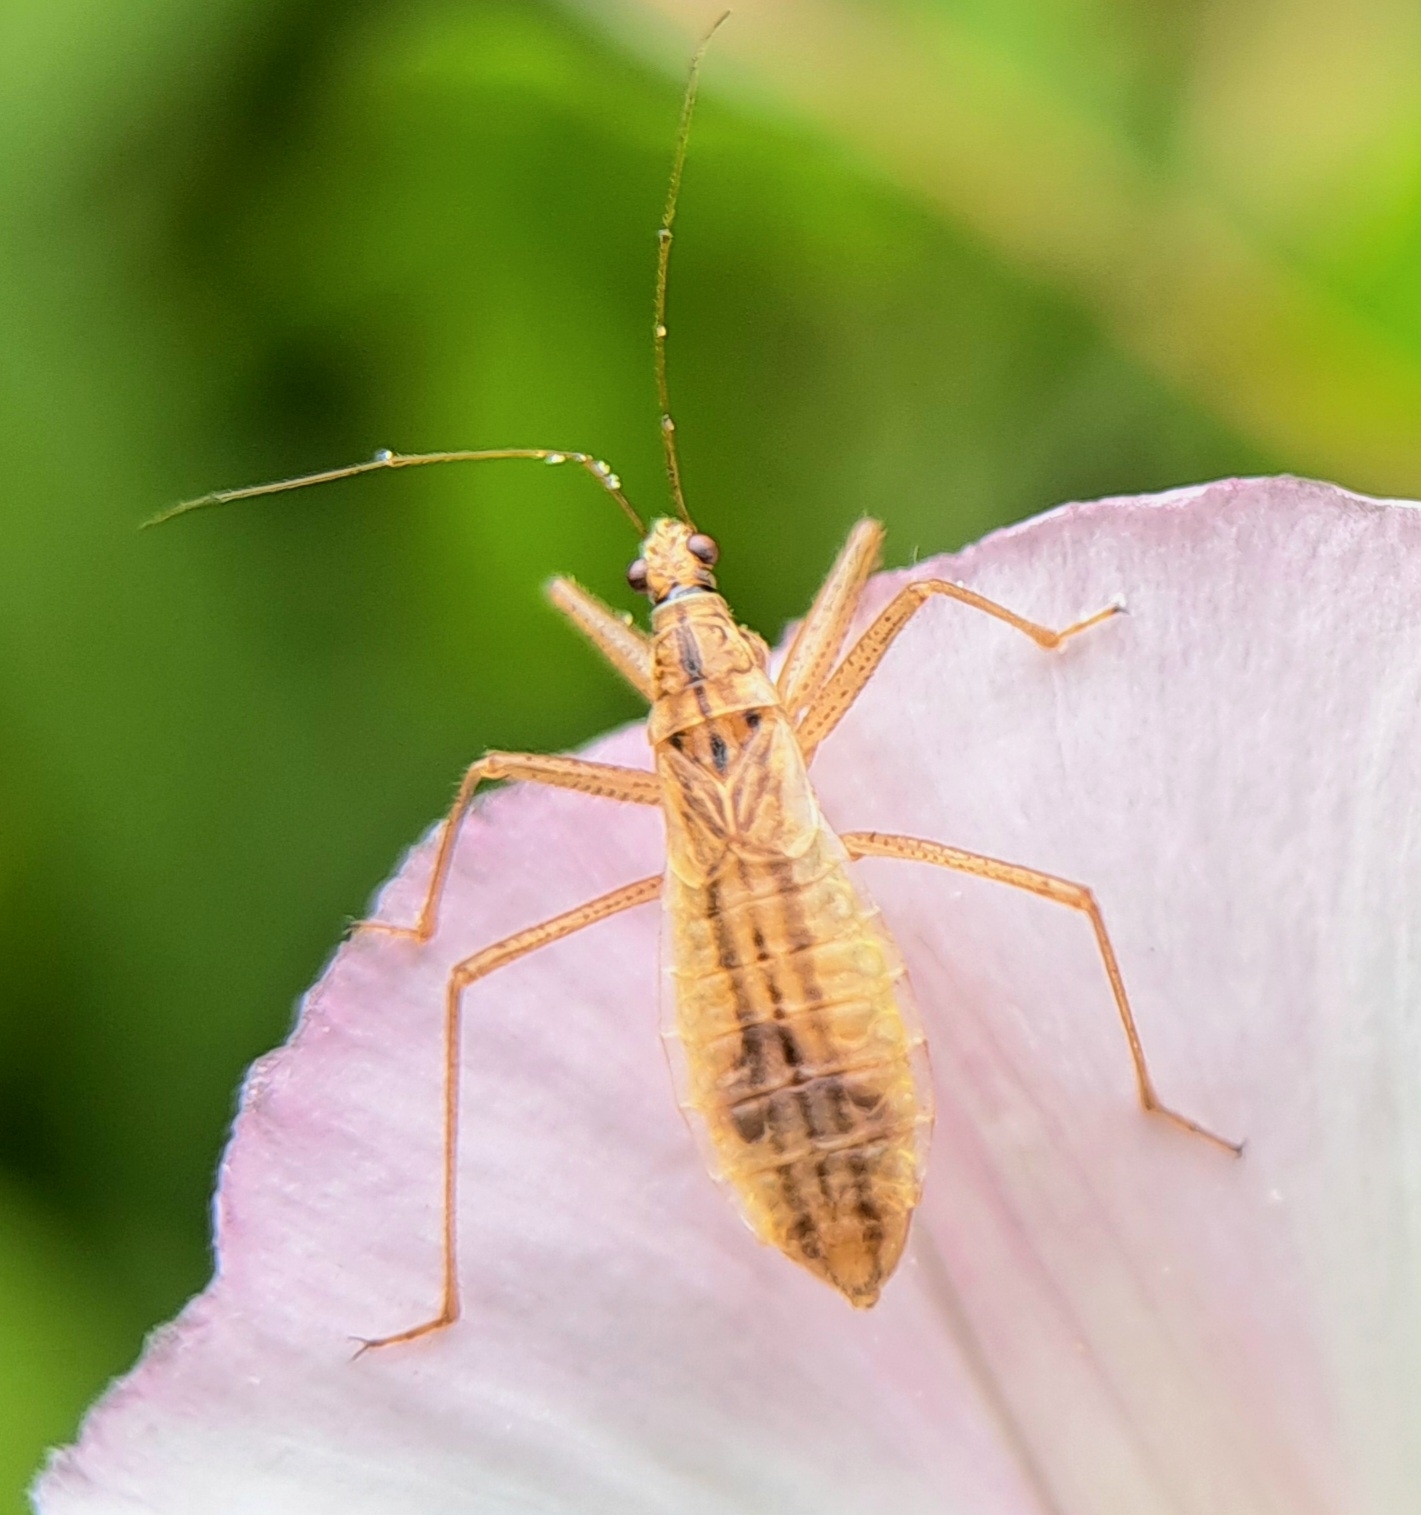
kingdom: Animalia
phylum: Arthropoda
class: Insecta
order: Hemiptera
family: Nabidae
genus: Nabis
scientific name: Nabis limbatus
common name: Marsh damselbug
